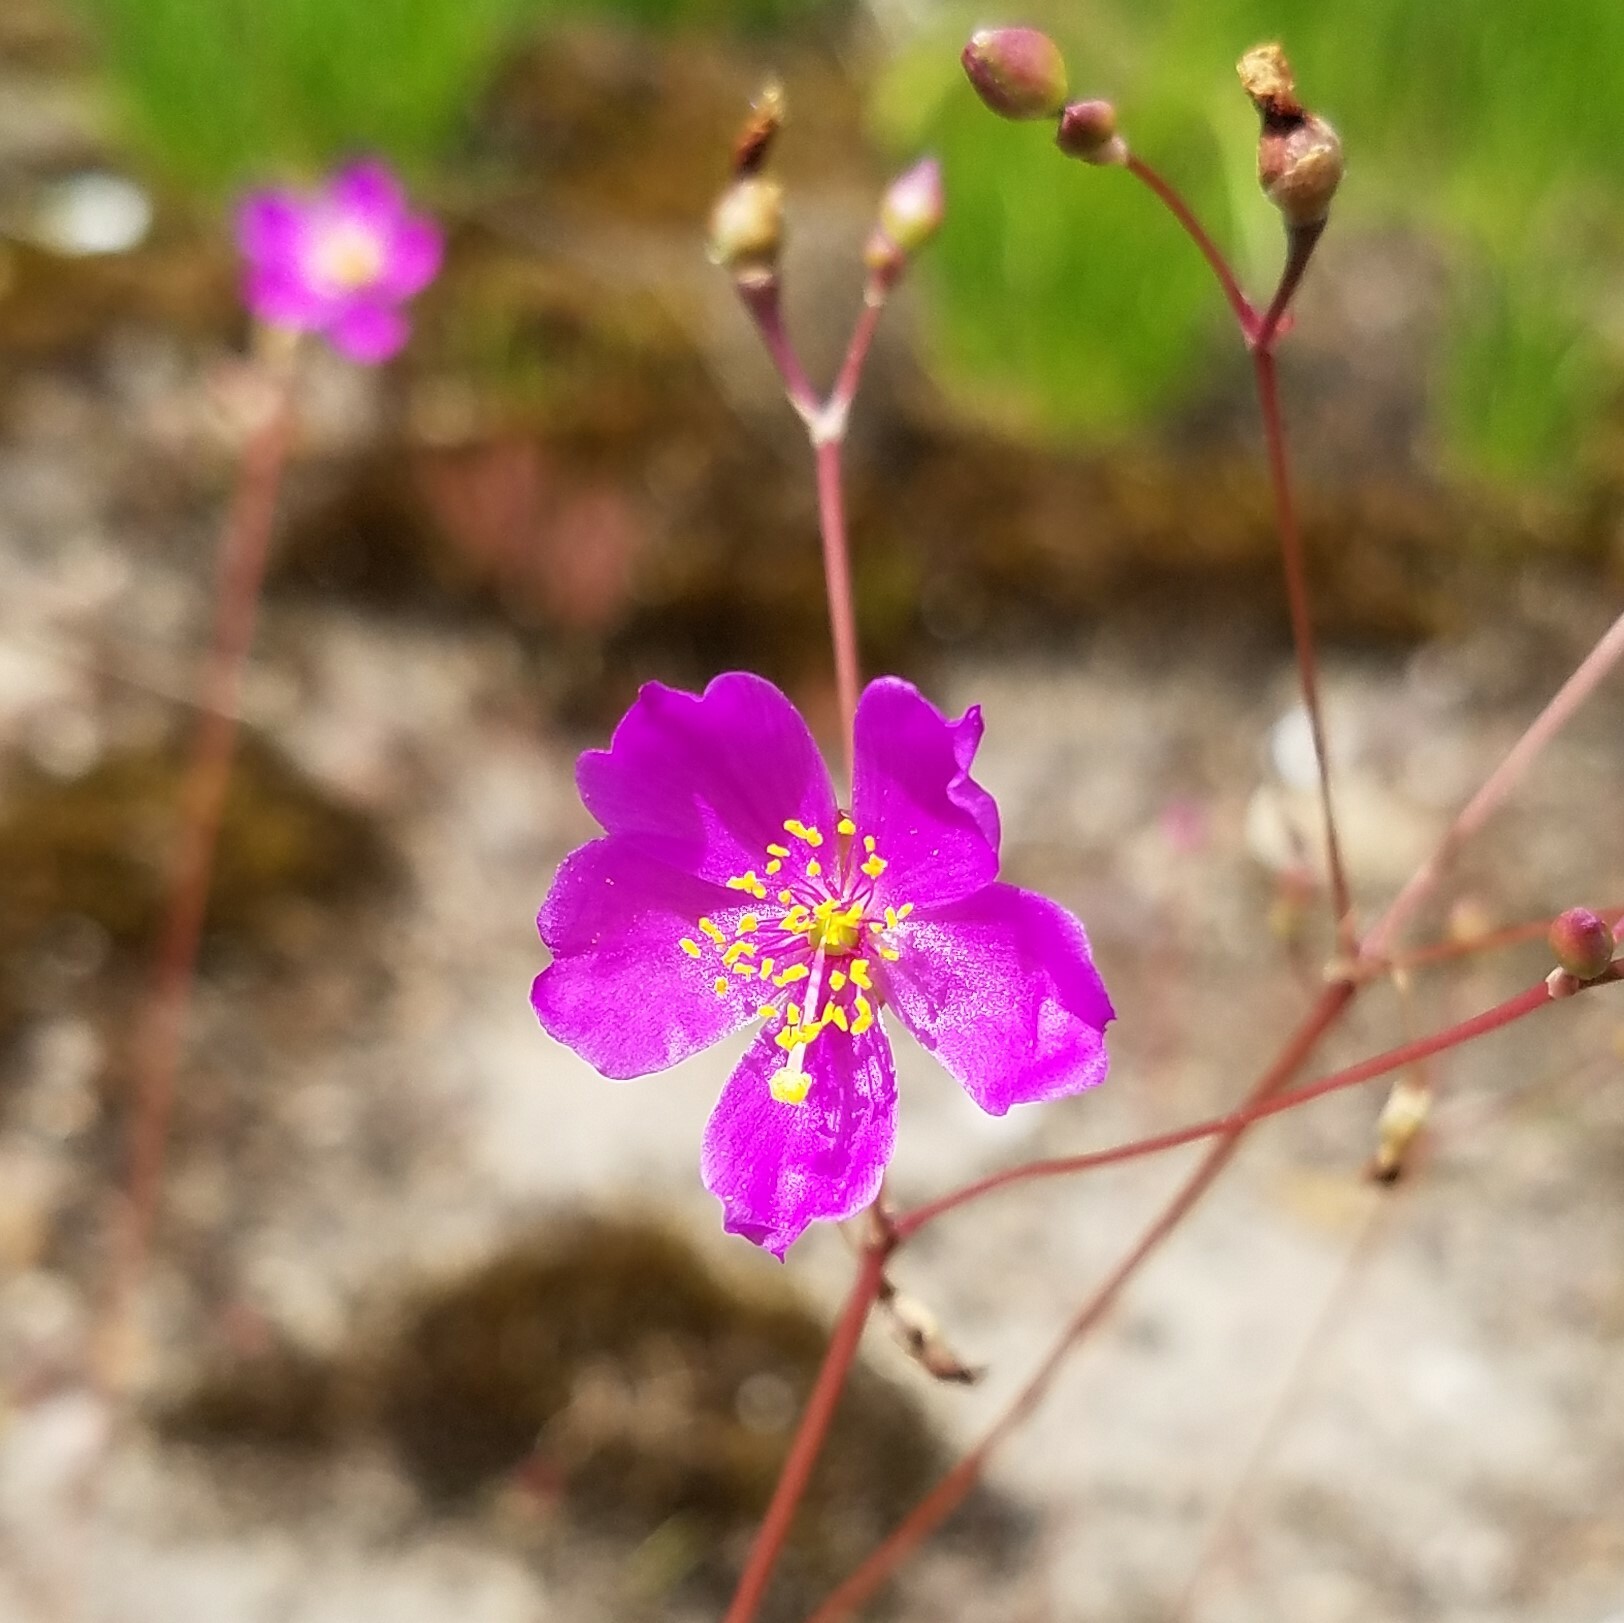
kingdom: Plantae
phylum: Tracheophyta
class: Magnoliopsida
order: Caryophyllales
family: Montiaceae
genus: Phemeranthus
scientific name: Phemeranthus mengesii
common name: Menges' fameflower
